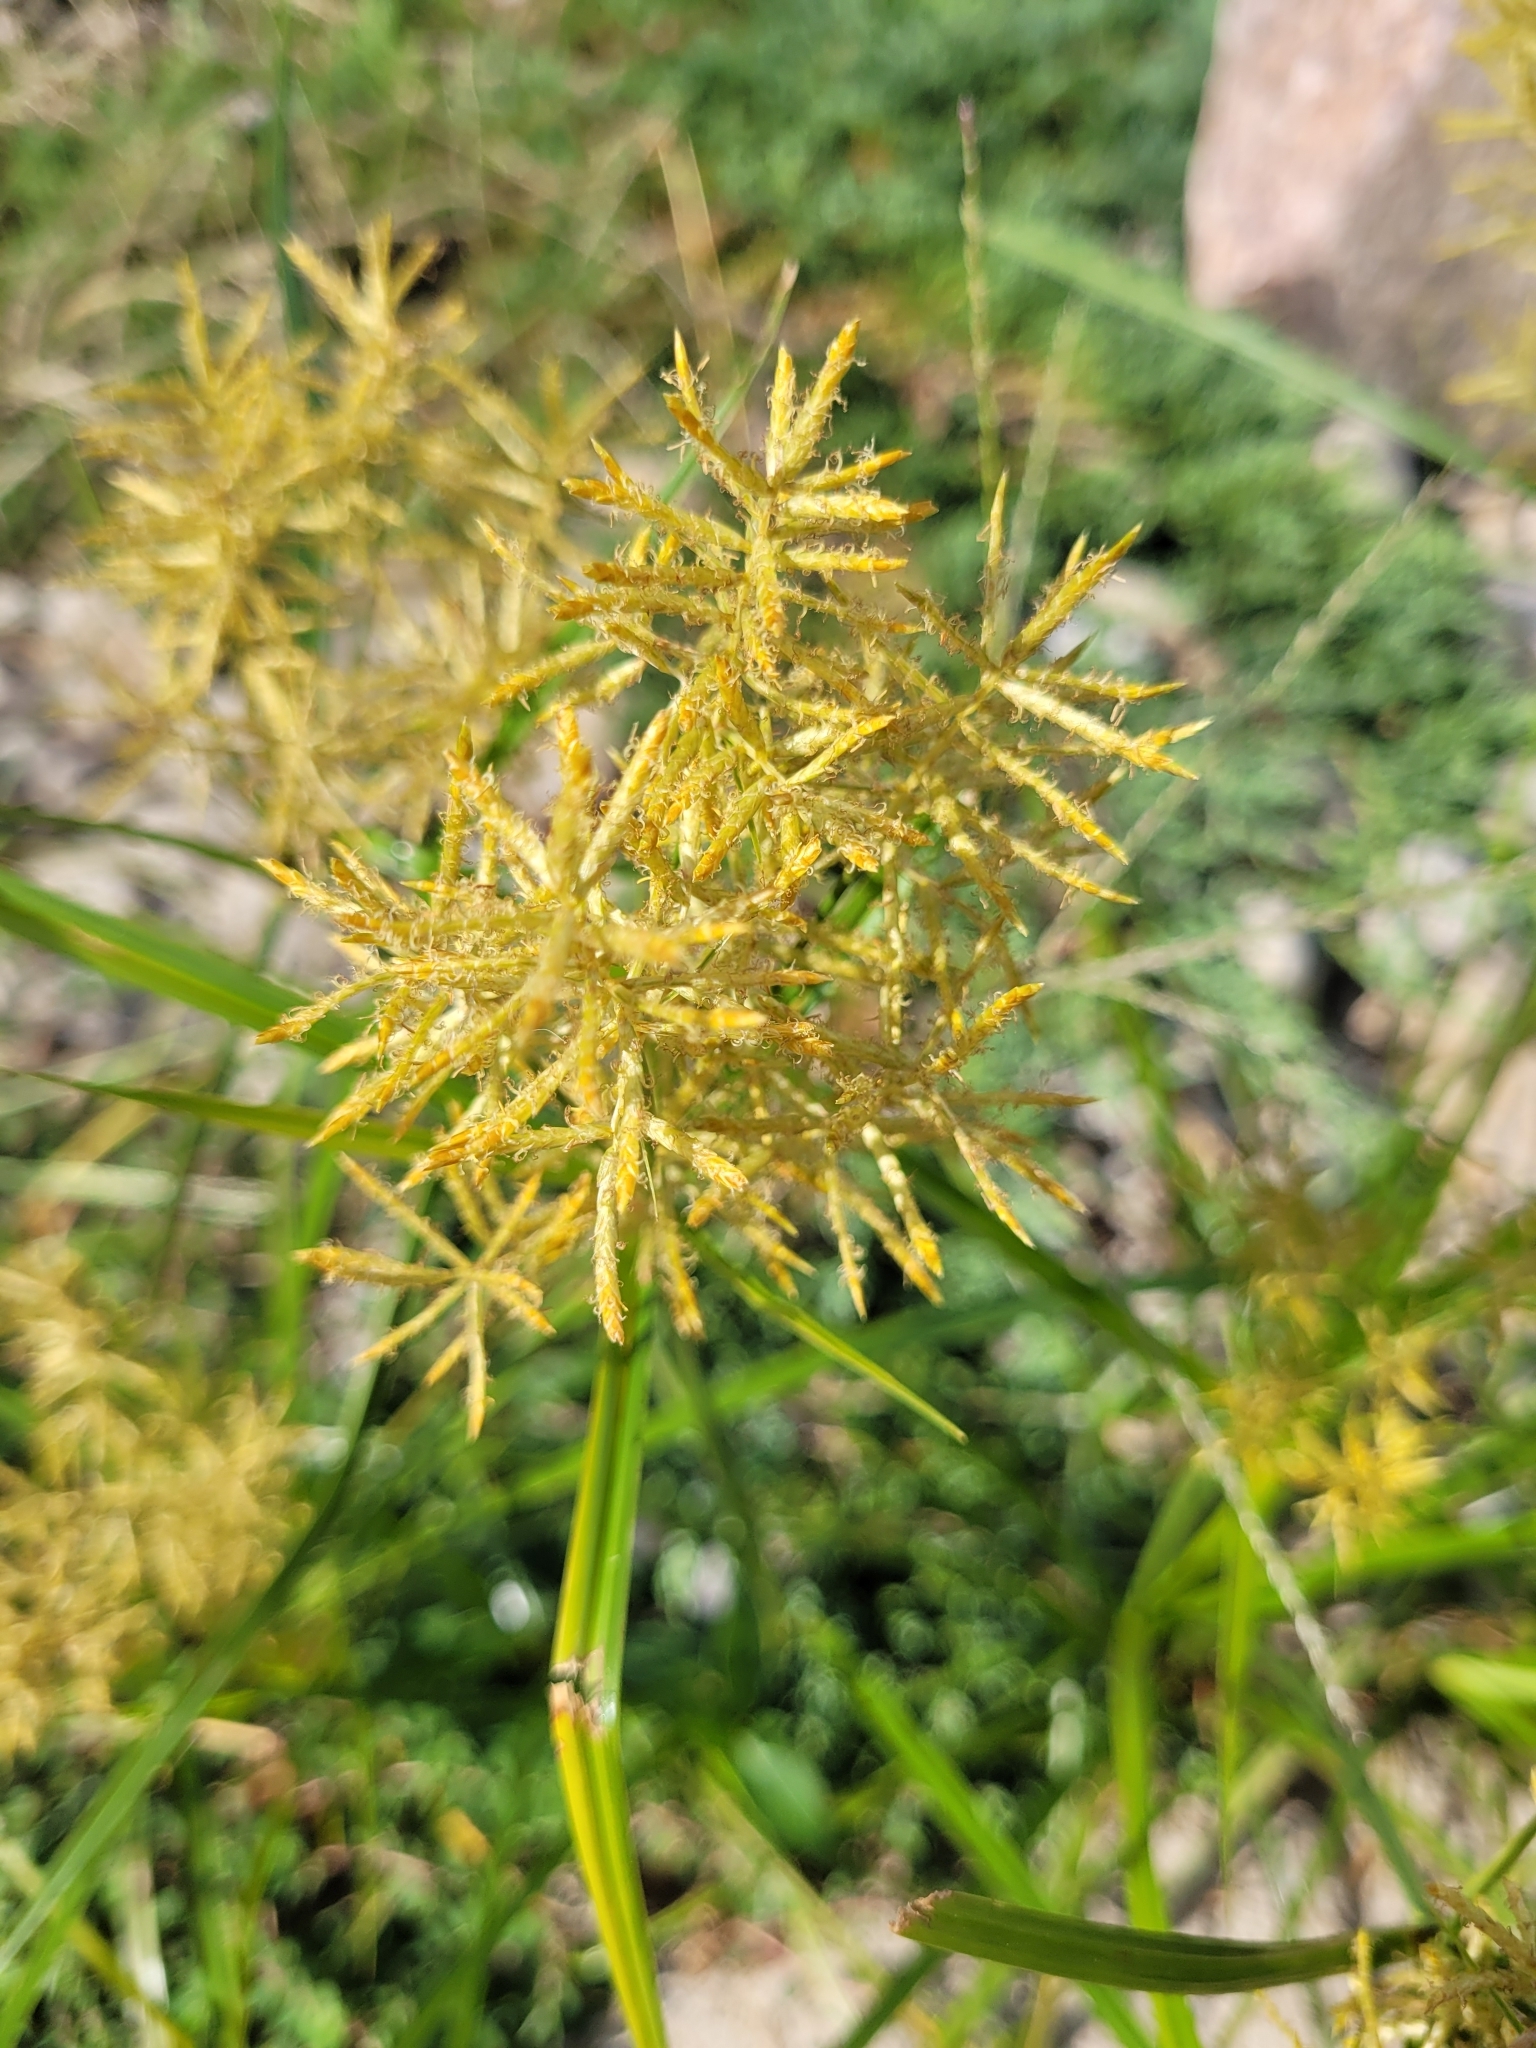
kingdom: Plantae
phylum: Tracheophyta
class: Liliopsida
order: Poales
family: Cyperaceae
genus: Cyperus
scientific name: Cyperus esculentus
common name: Yellow nutsedge
